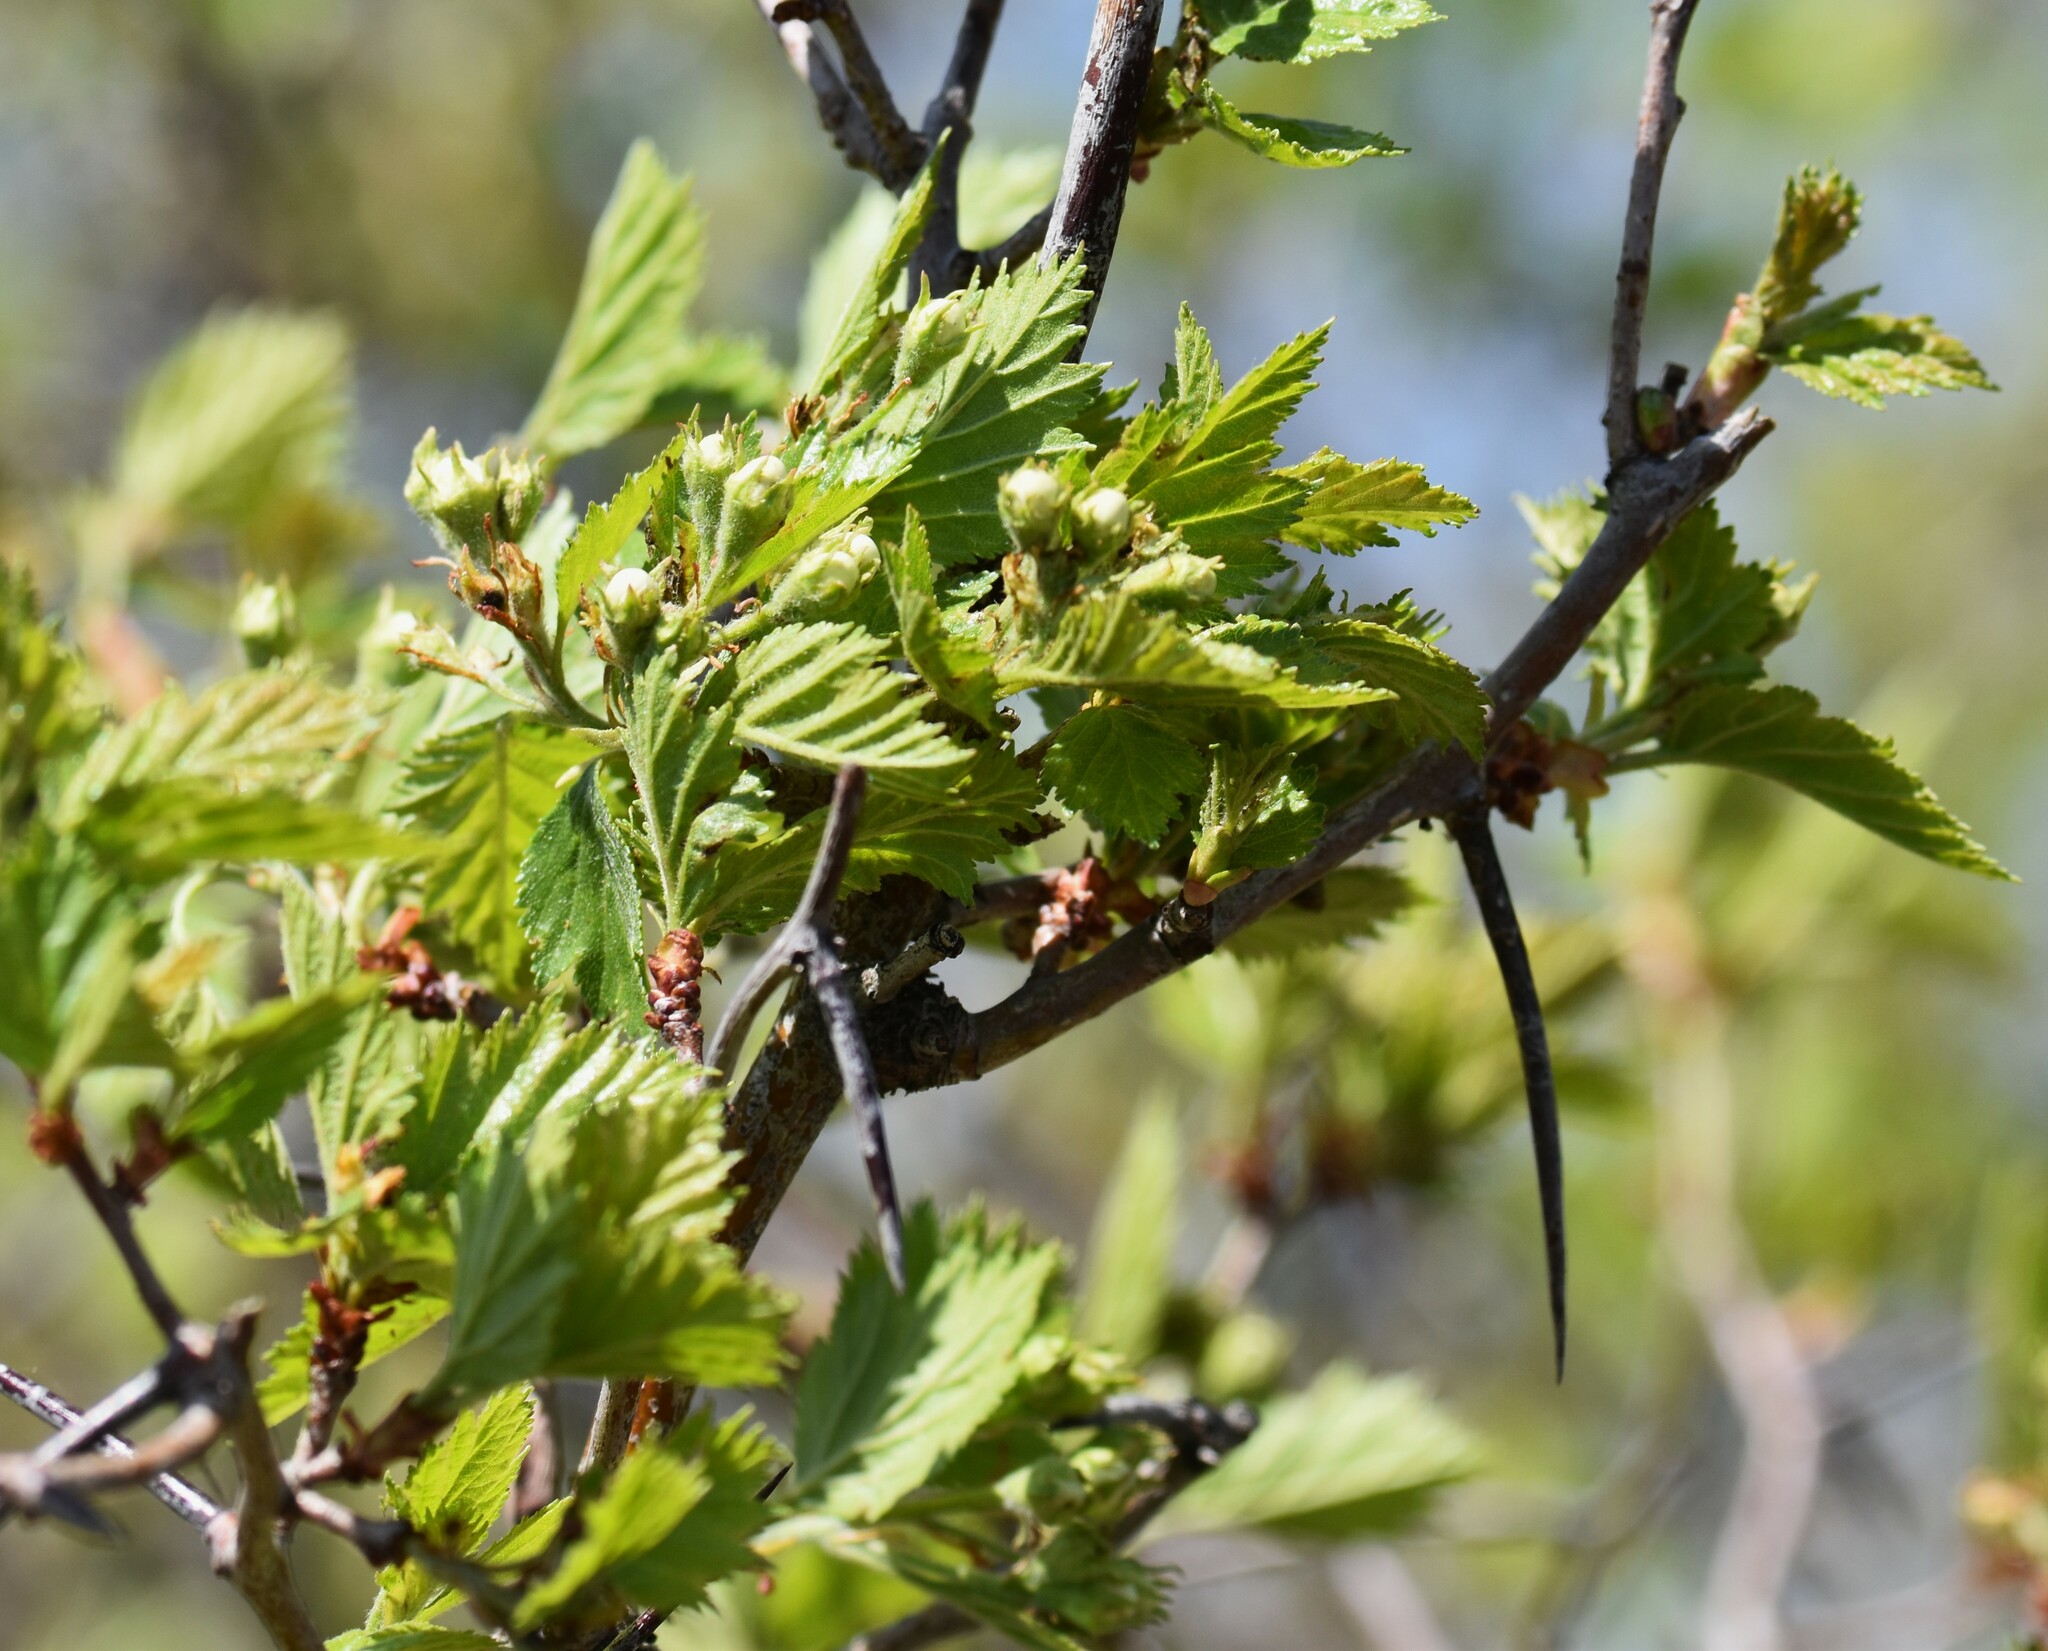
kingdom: Plantae
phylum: Tracheophyta
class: Magnoliopsida
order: Rosales
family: Rosaceae
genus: Crataegus
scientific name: Crataegus chrysocarpa
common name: Fire-berry hawthorn
